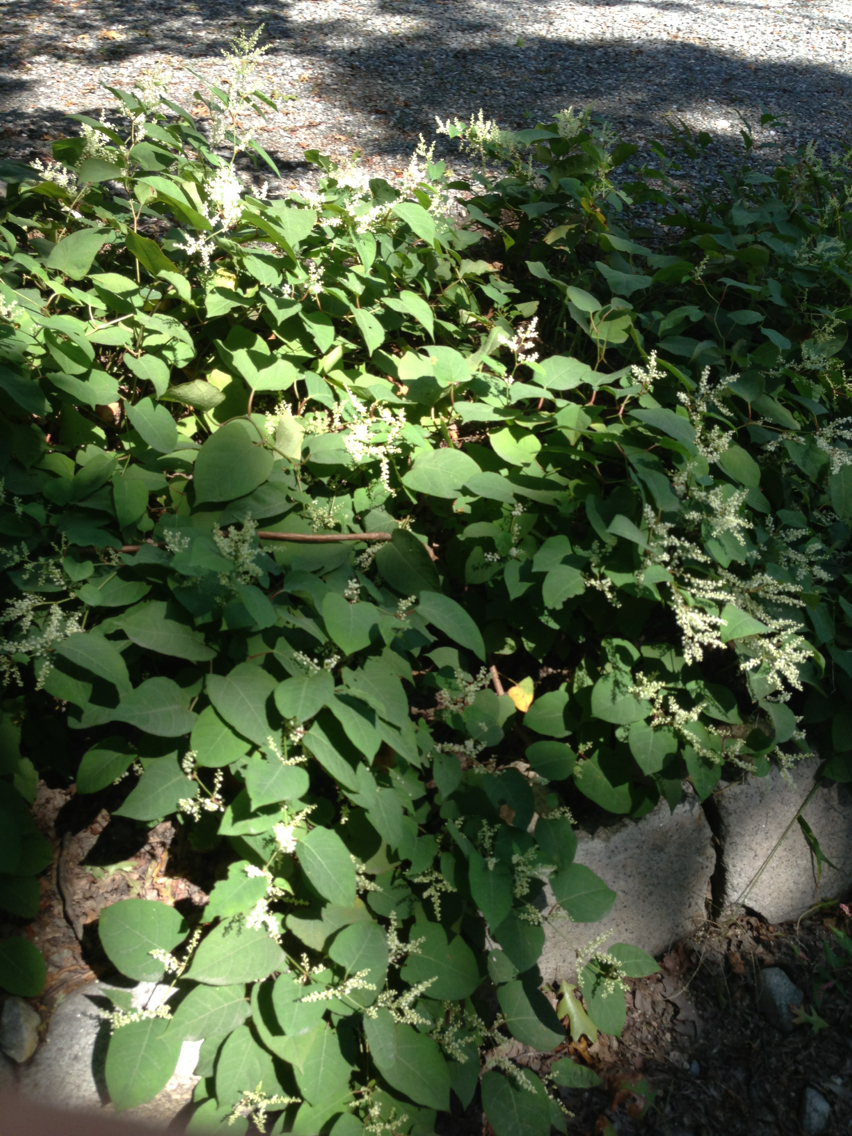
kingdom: Plantae
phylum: Tracheophyta
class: Magnoliopsida
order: Caryophyllales
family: Polygonaceae
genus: Reynoutria
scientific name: Reynoutria japonica
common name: Japanese knotweed
